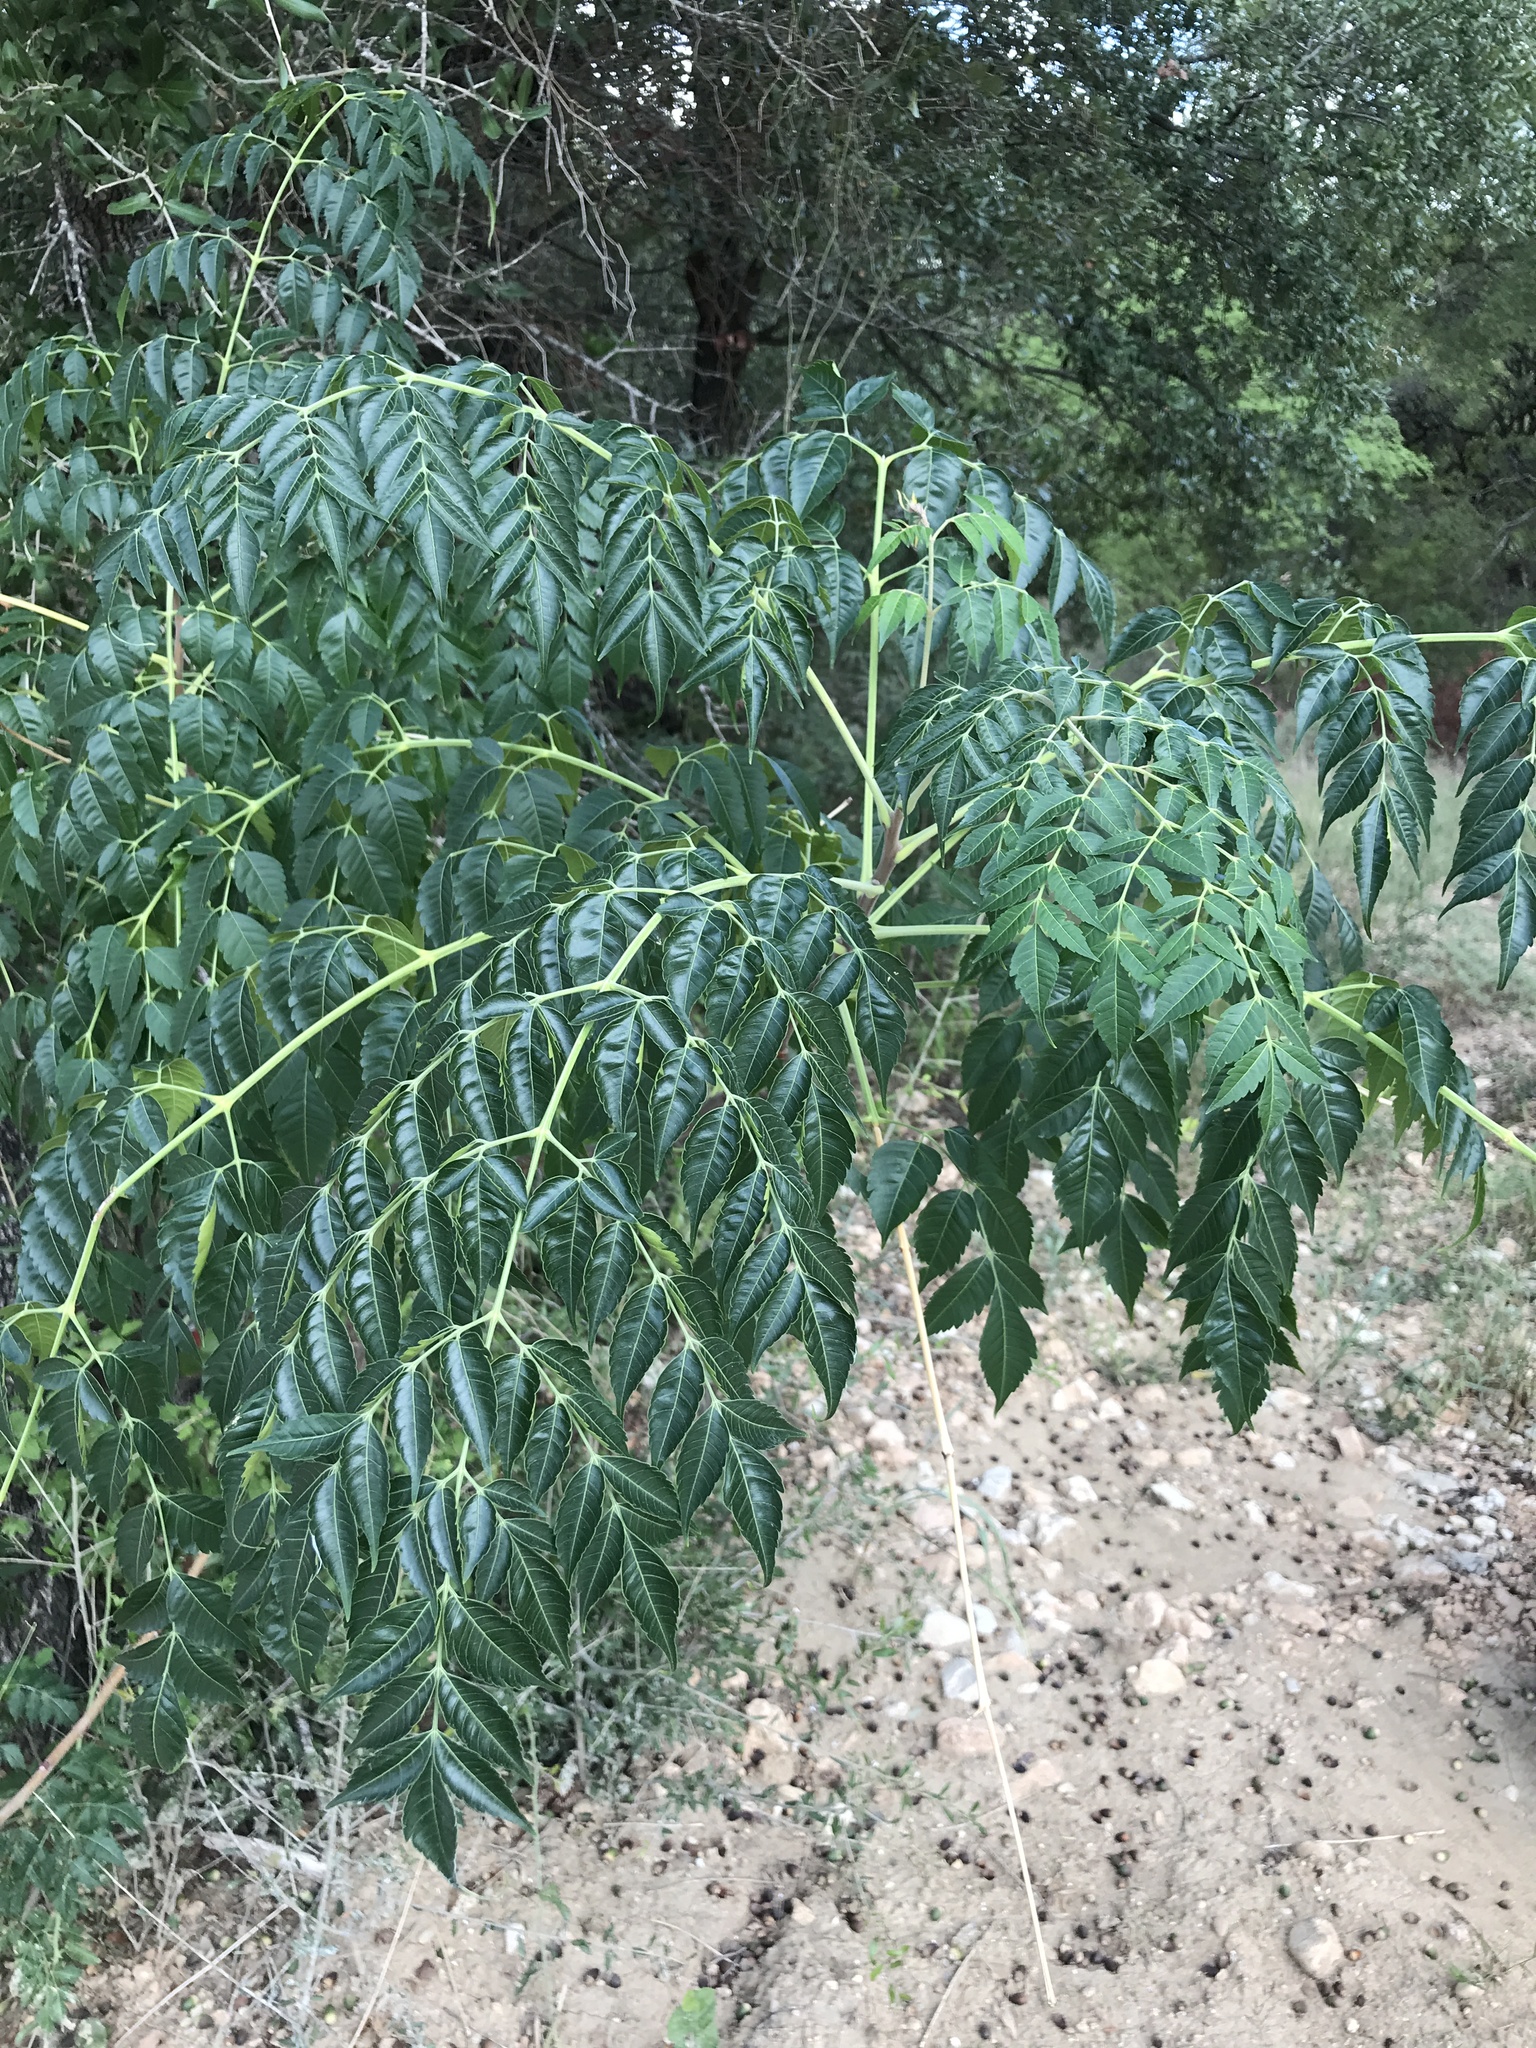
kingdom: Plantae
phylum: Tracheophyta
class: Magnoliopsida
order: Sapindales
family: Meliaceae
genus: Melia
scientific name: Melia azedarach
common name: Chinaberrytree
